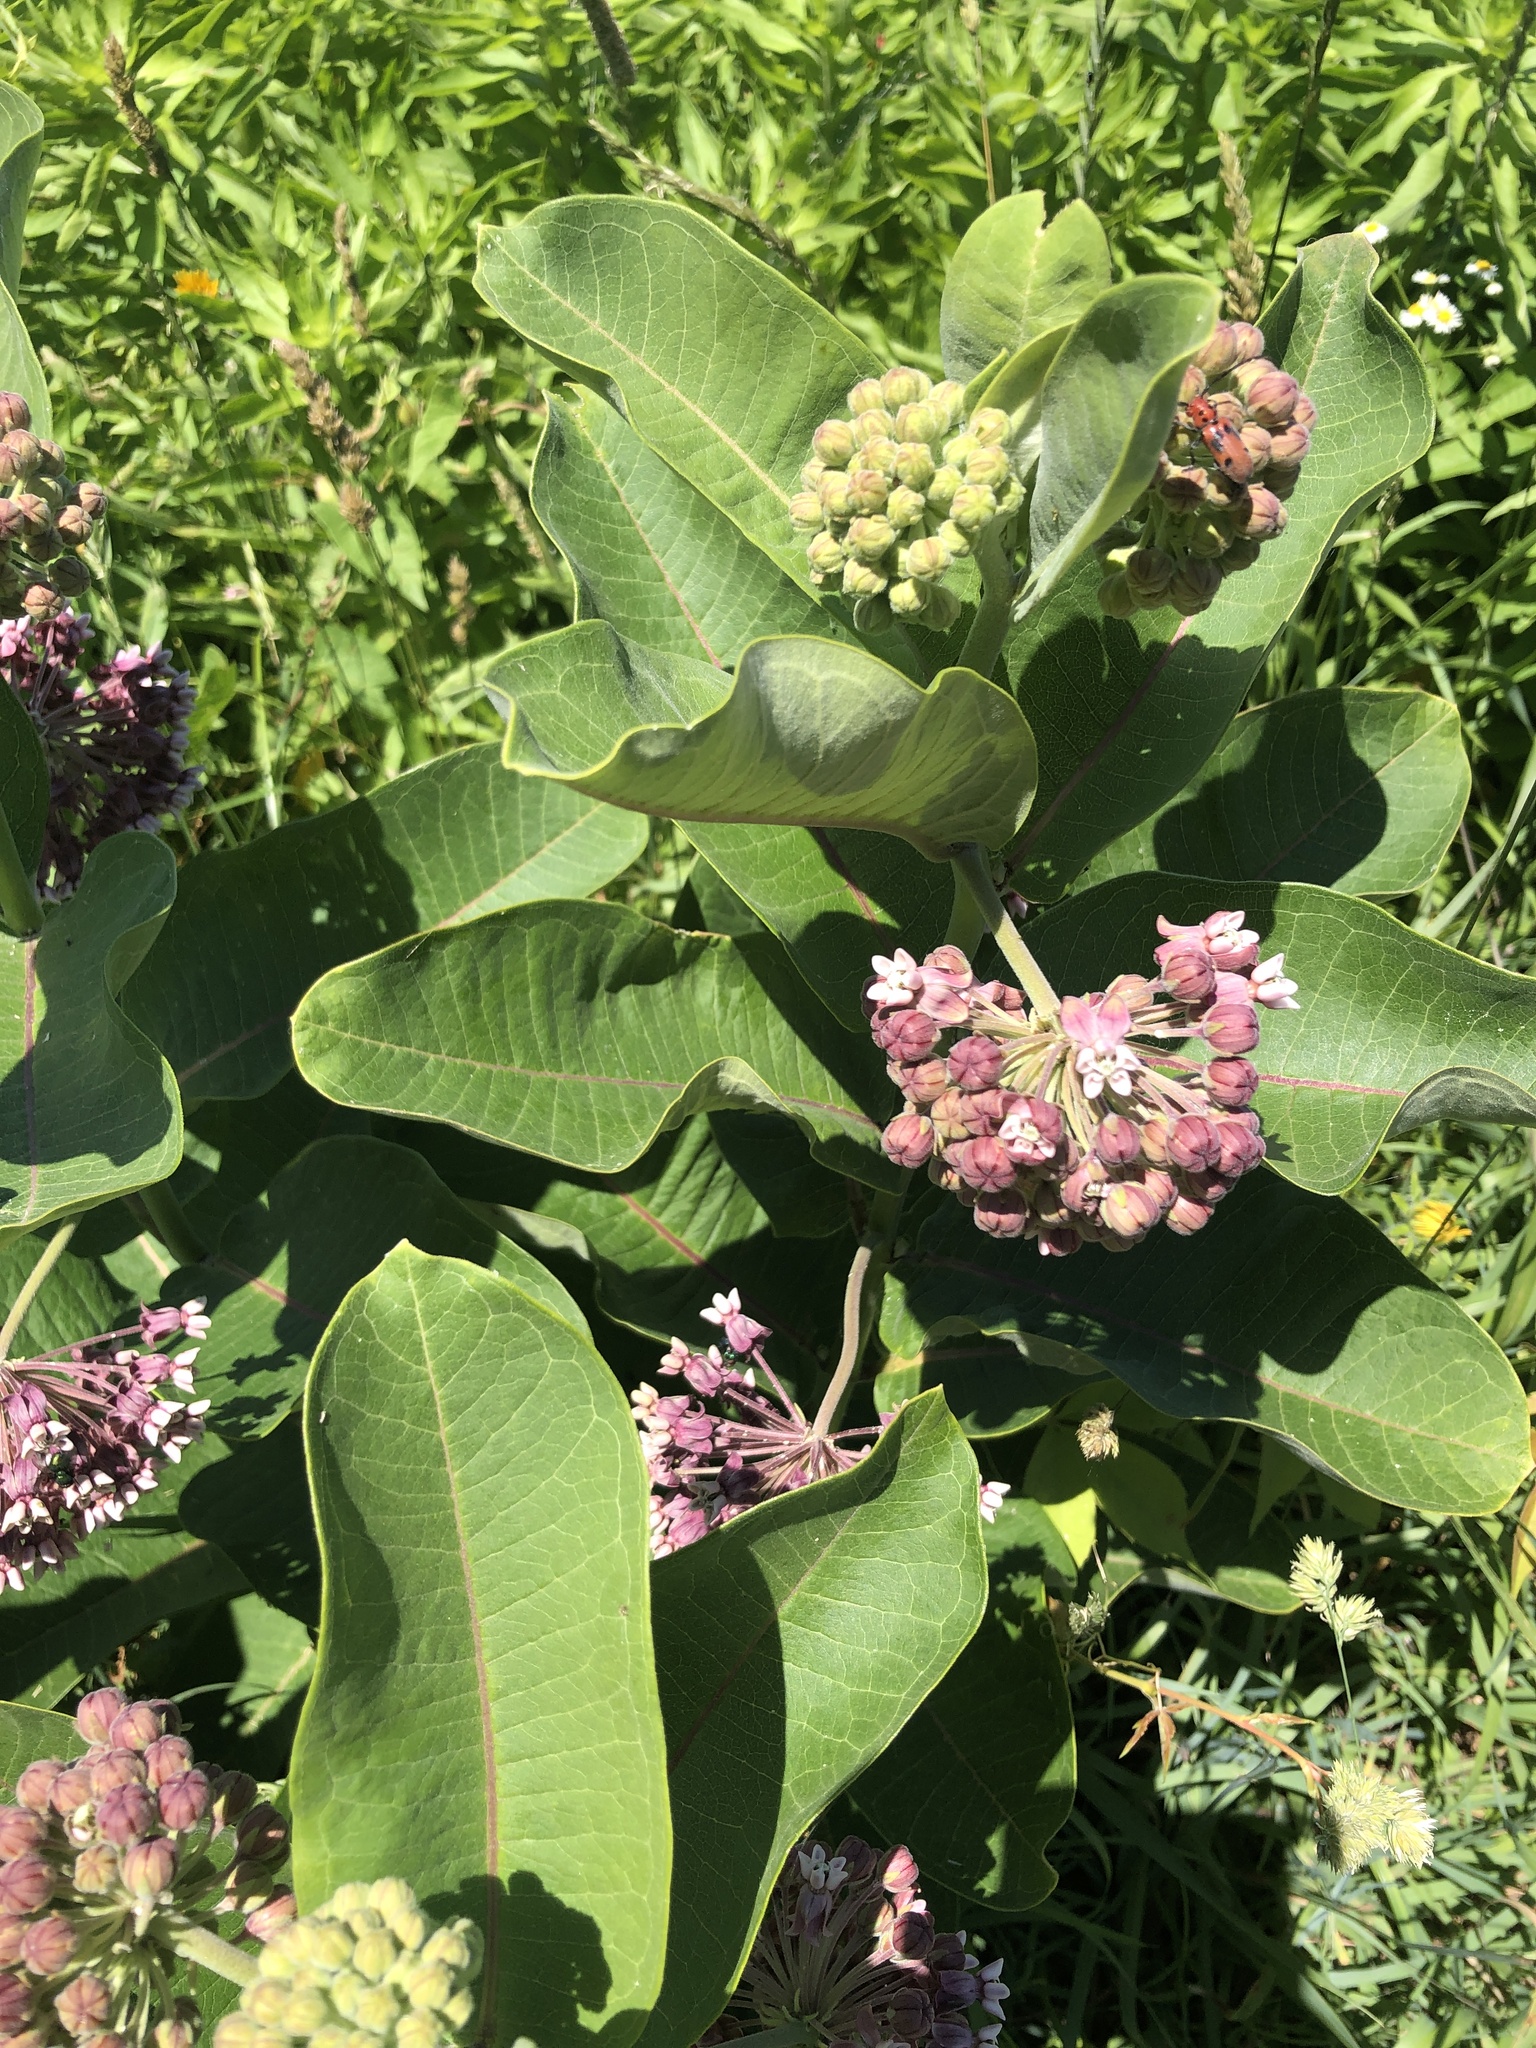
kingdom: Plantae
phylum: Tracheophyta
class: Magnoliopsida
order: Gentianales
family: Apocynaceae
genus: Asclepias
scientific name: Asclepias syriaca
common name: Common milkweed
